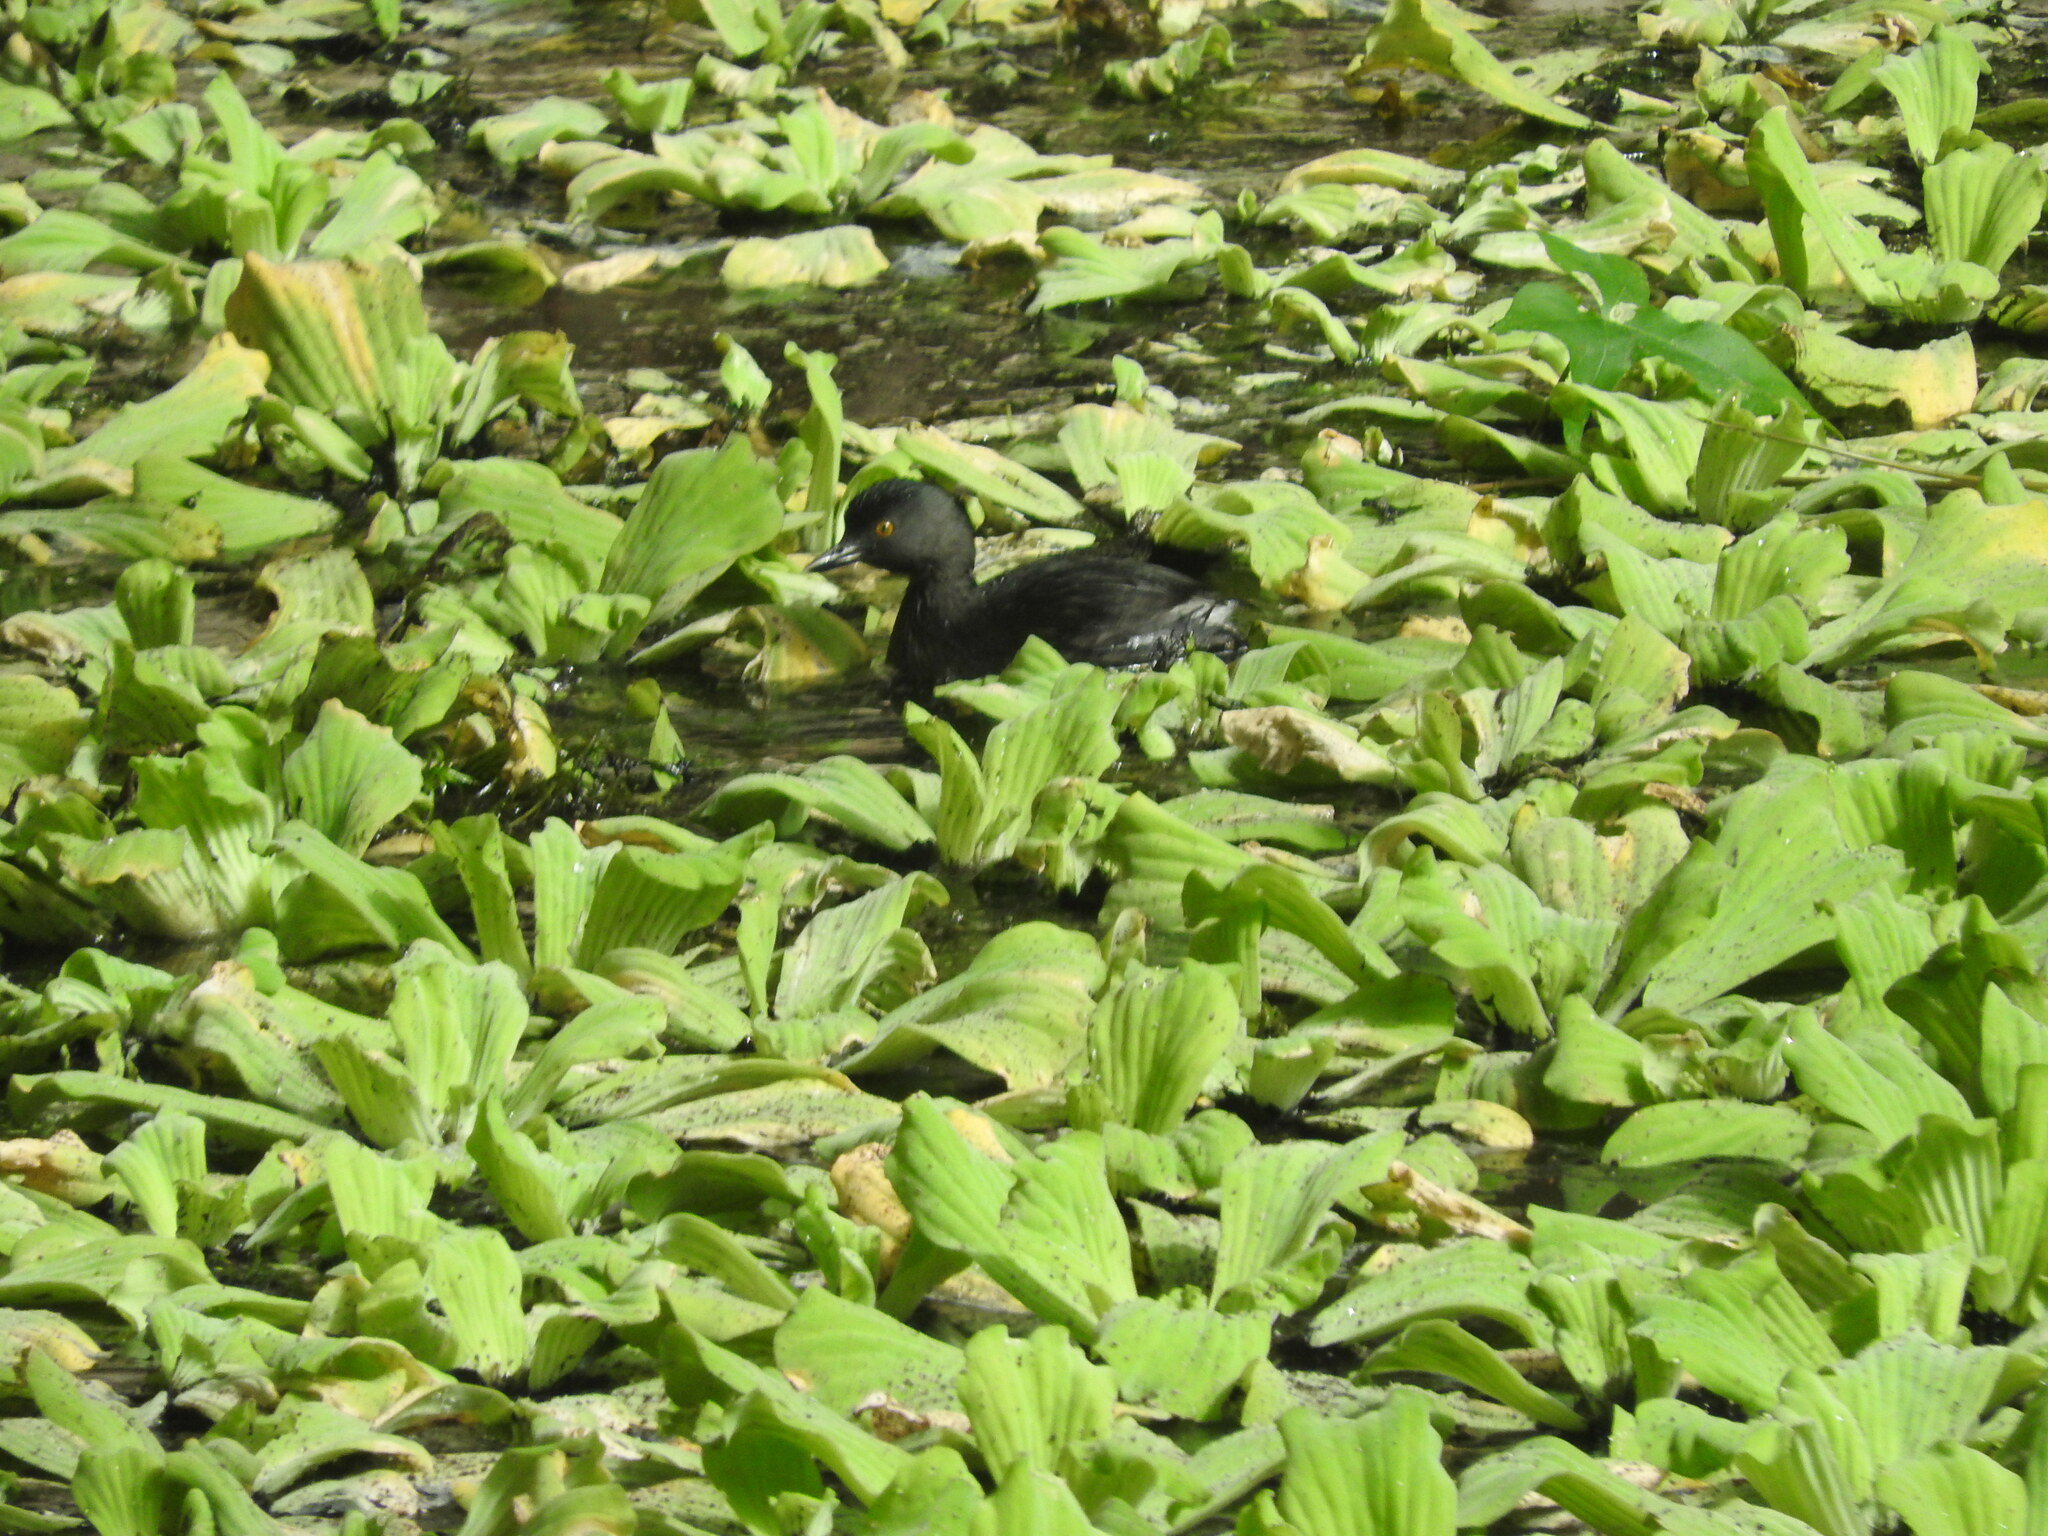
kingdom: Animalia
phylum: Chordata
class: Aves
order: Podicipediformes
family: Podicipedidae
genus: Tachybaptus
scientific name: Tachybaptus dominicus
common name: Least grebe
